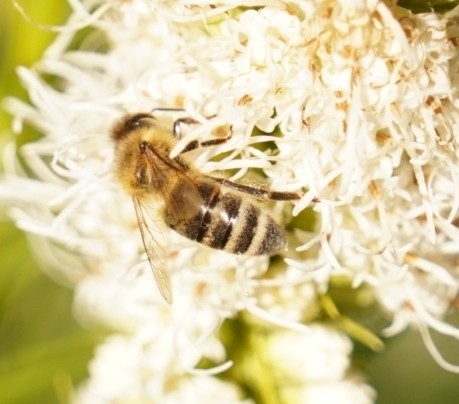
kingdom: Animalia
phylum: Arthropoda
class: Insecta
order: Hymenoptera
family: Apidae
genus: Apis
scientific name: Apis mellifera
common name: Honey bee
